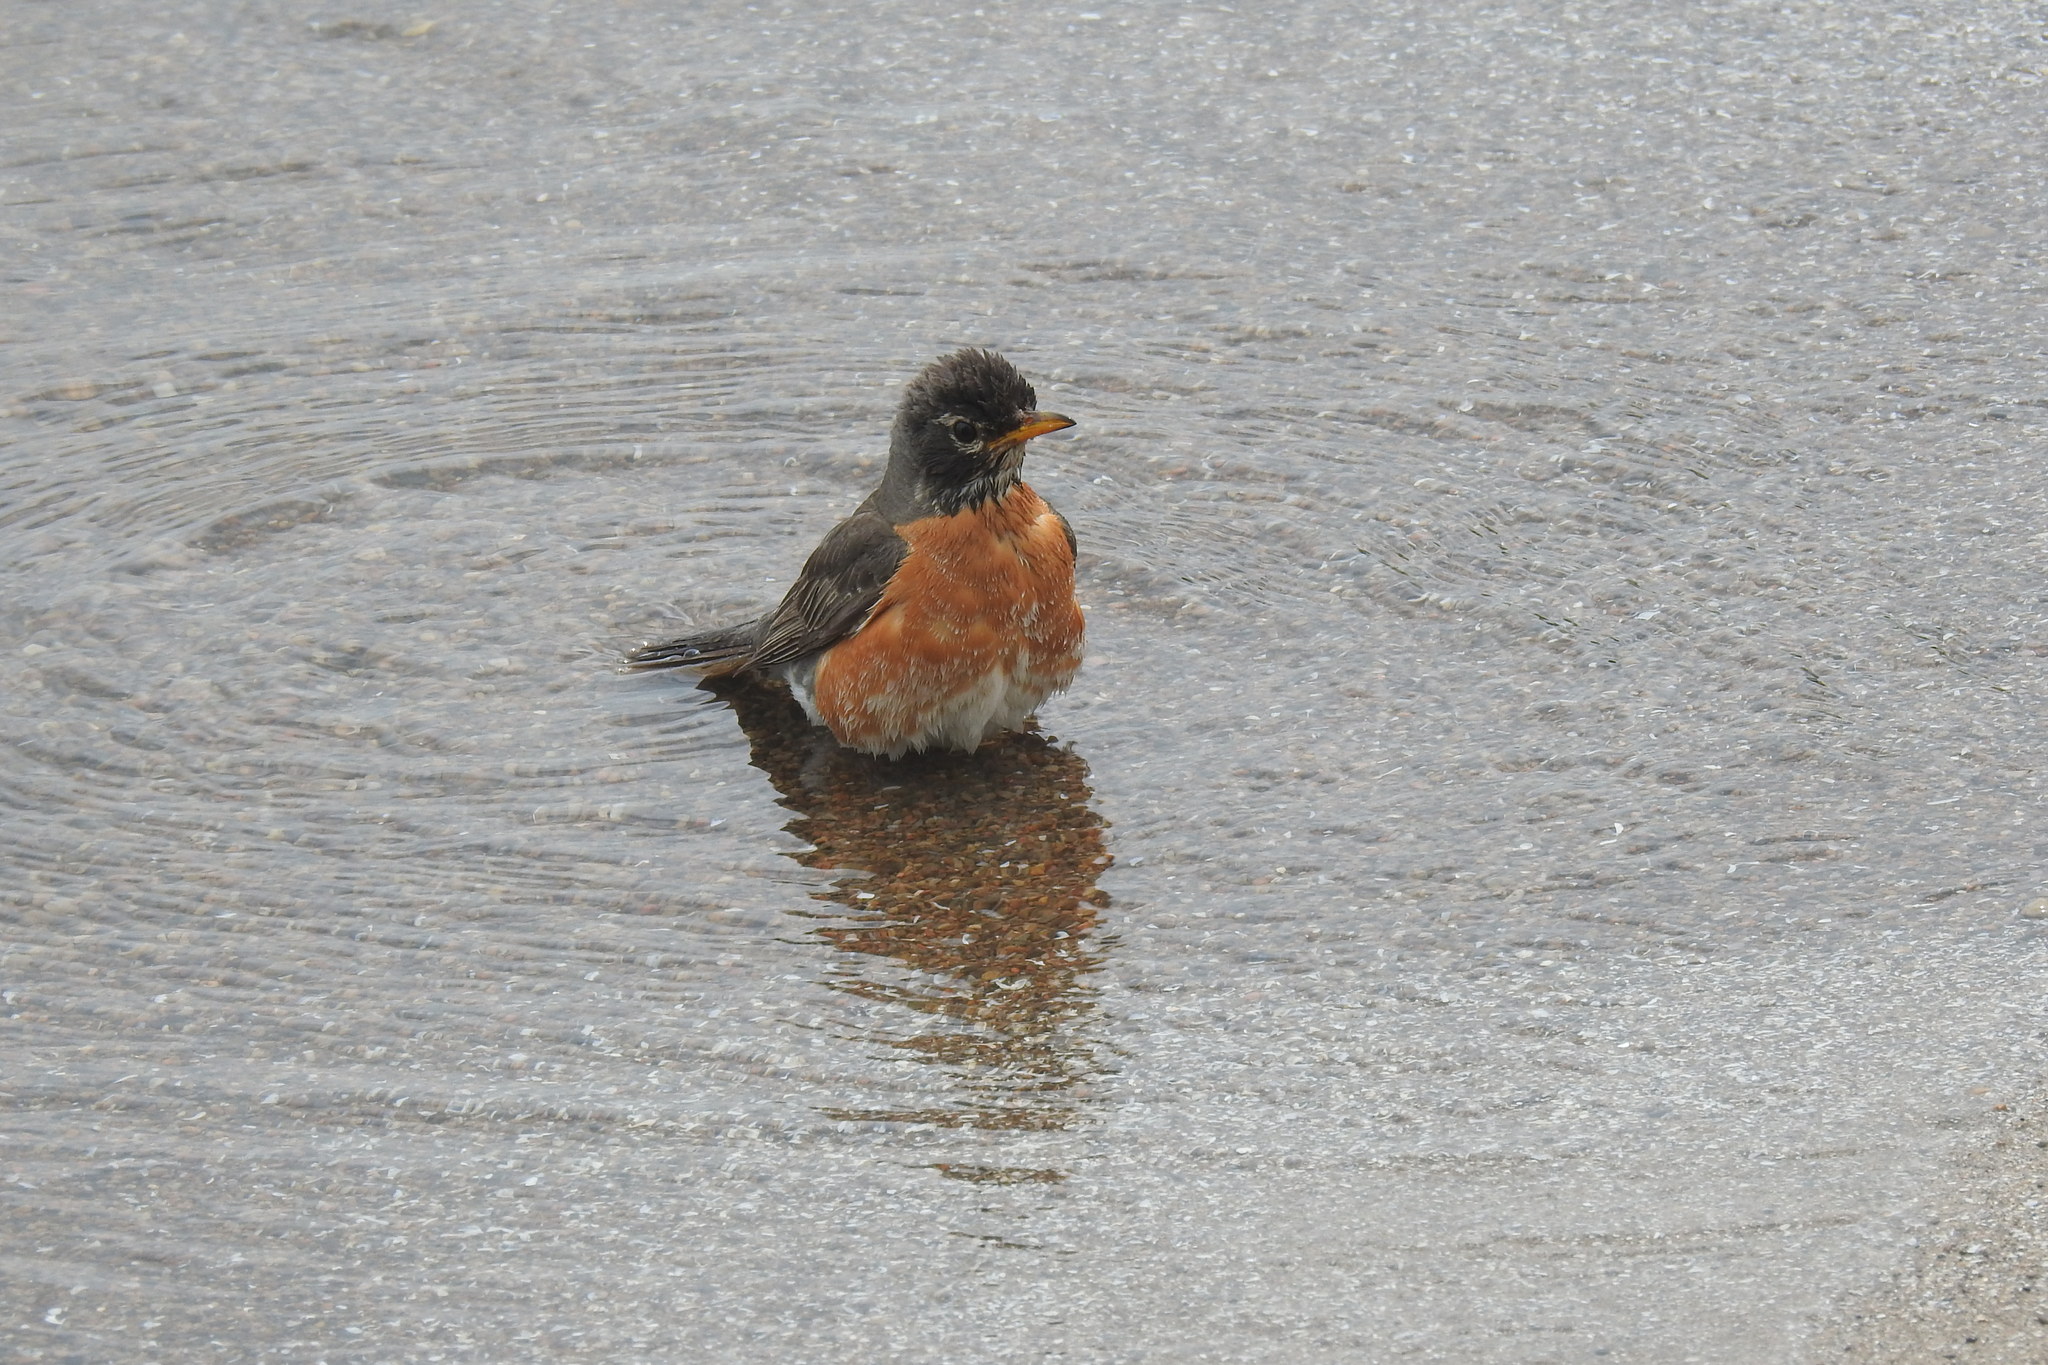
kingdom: Animalia
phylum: Chordata
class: Aves
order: Passeriformes
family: Turdidae
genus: Turdus
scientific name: Turdus migratorius
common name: American robin
